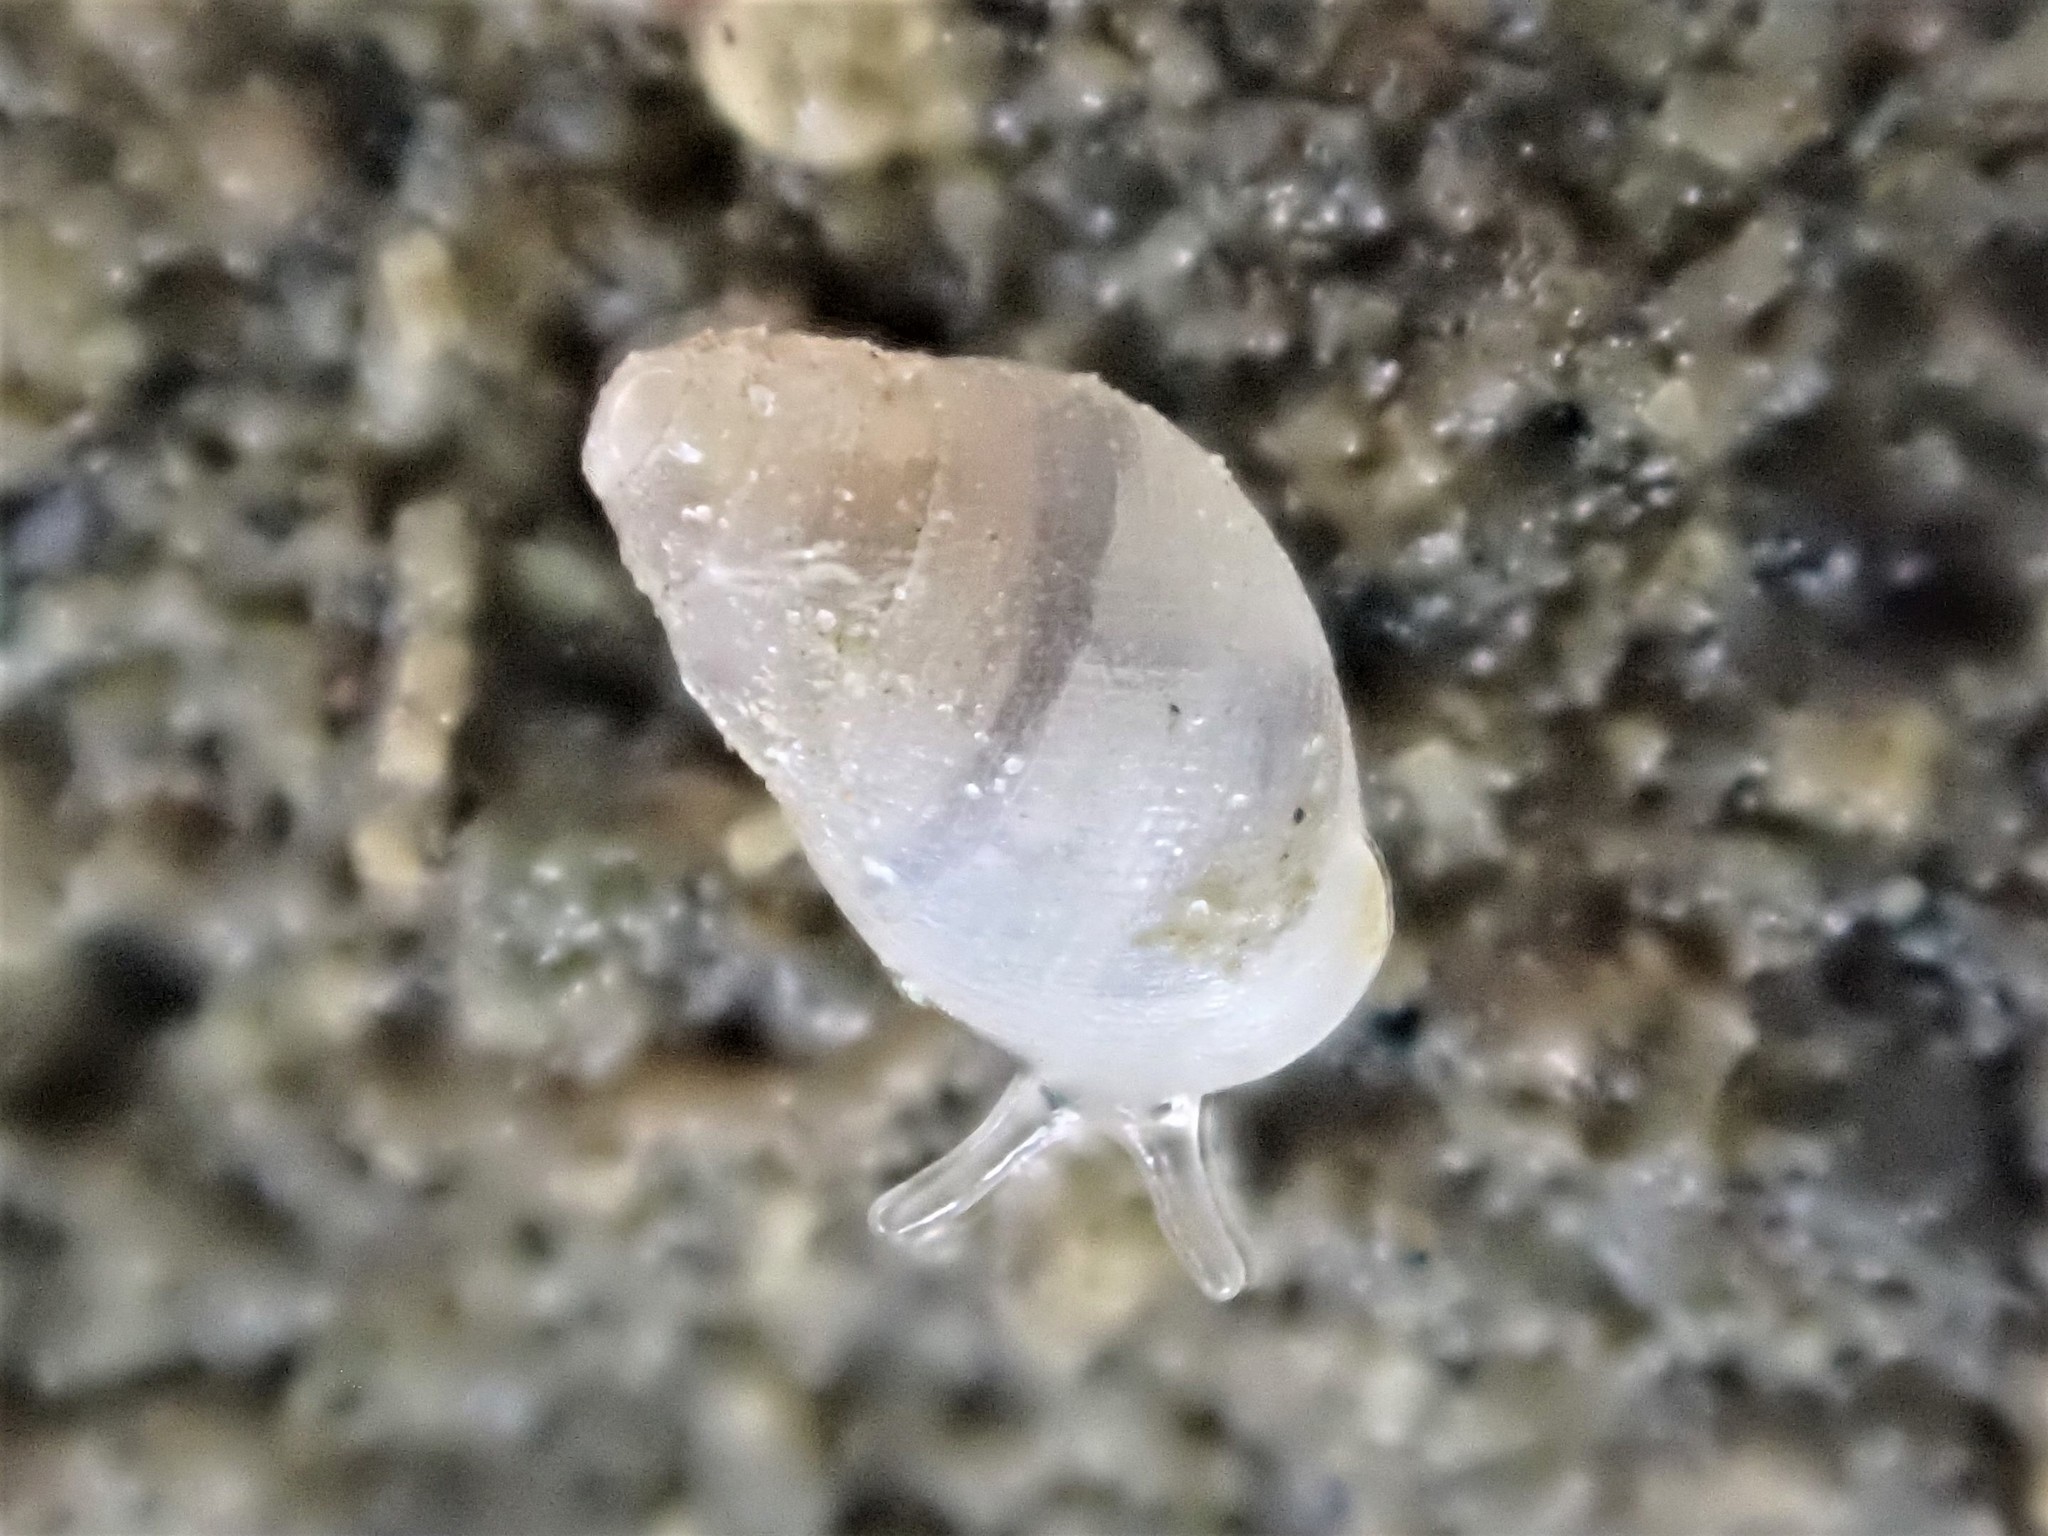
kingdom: Animalia
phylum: Mollusca
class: Gastropoda
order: Ellobiida
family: Ellobiidae
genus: Leuconopsis
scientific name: Leuconopsis obsoleta
